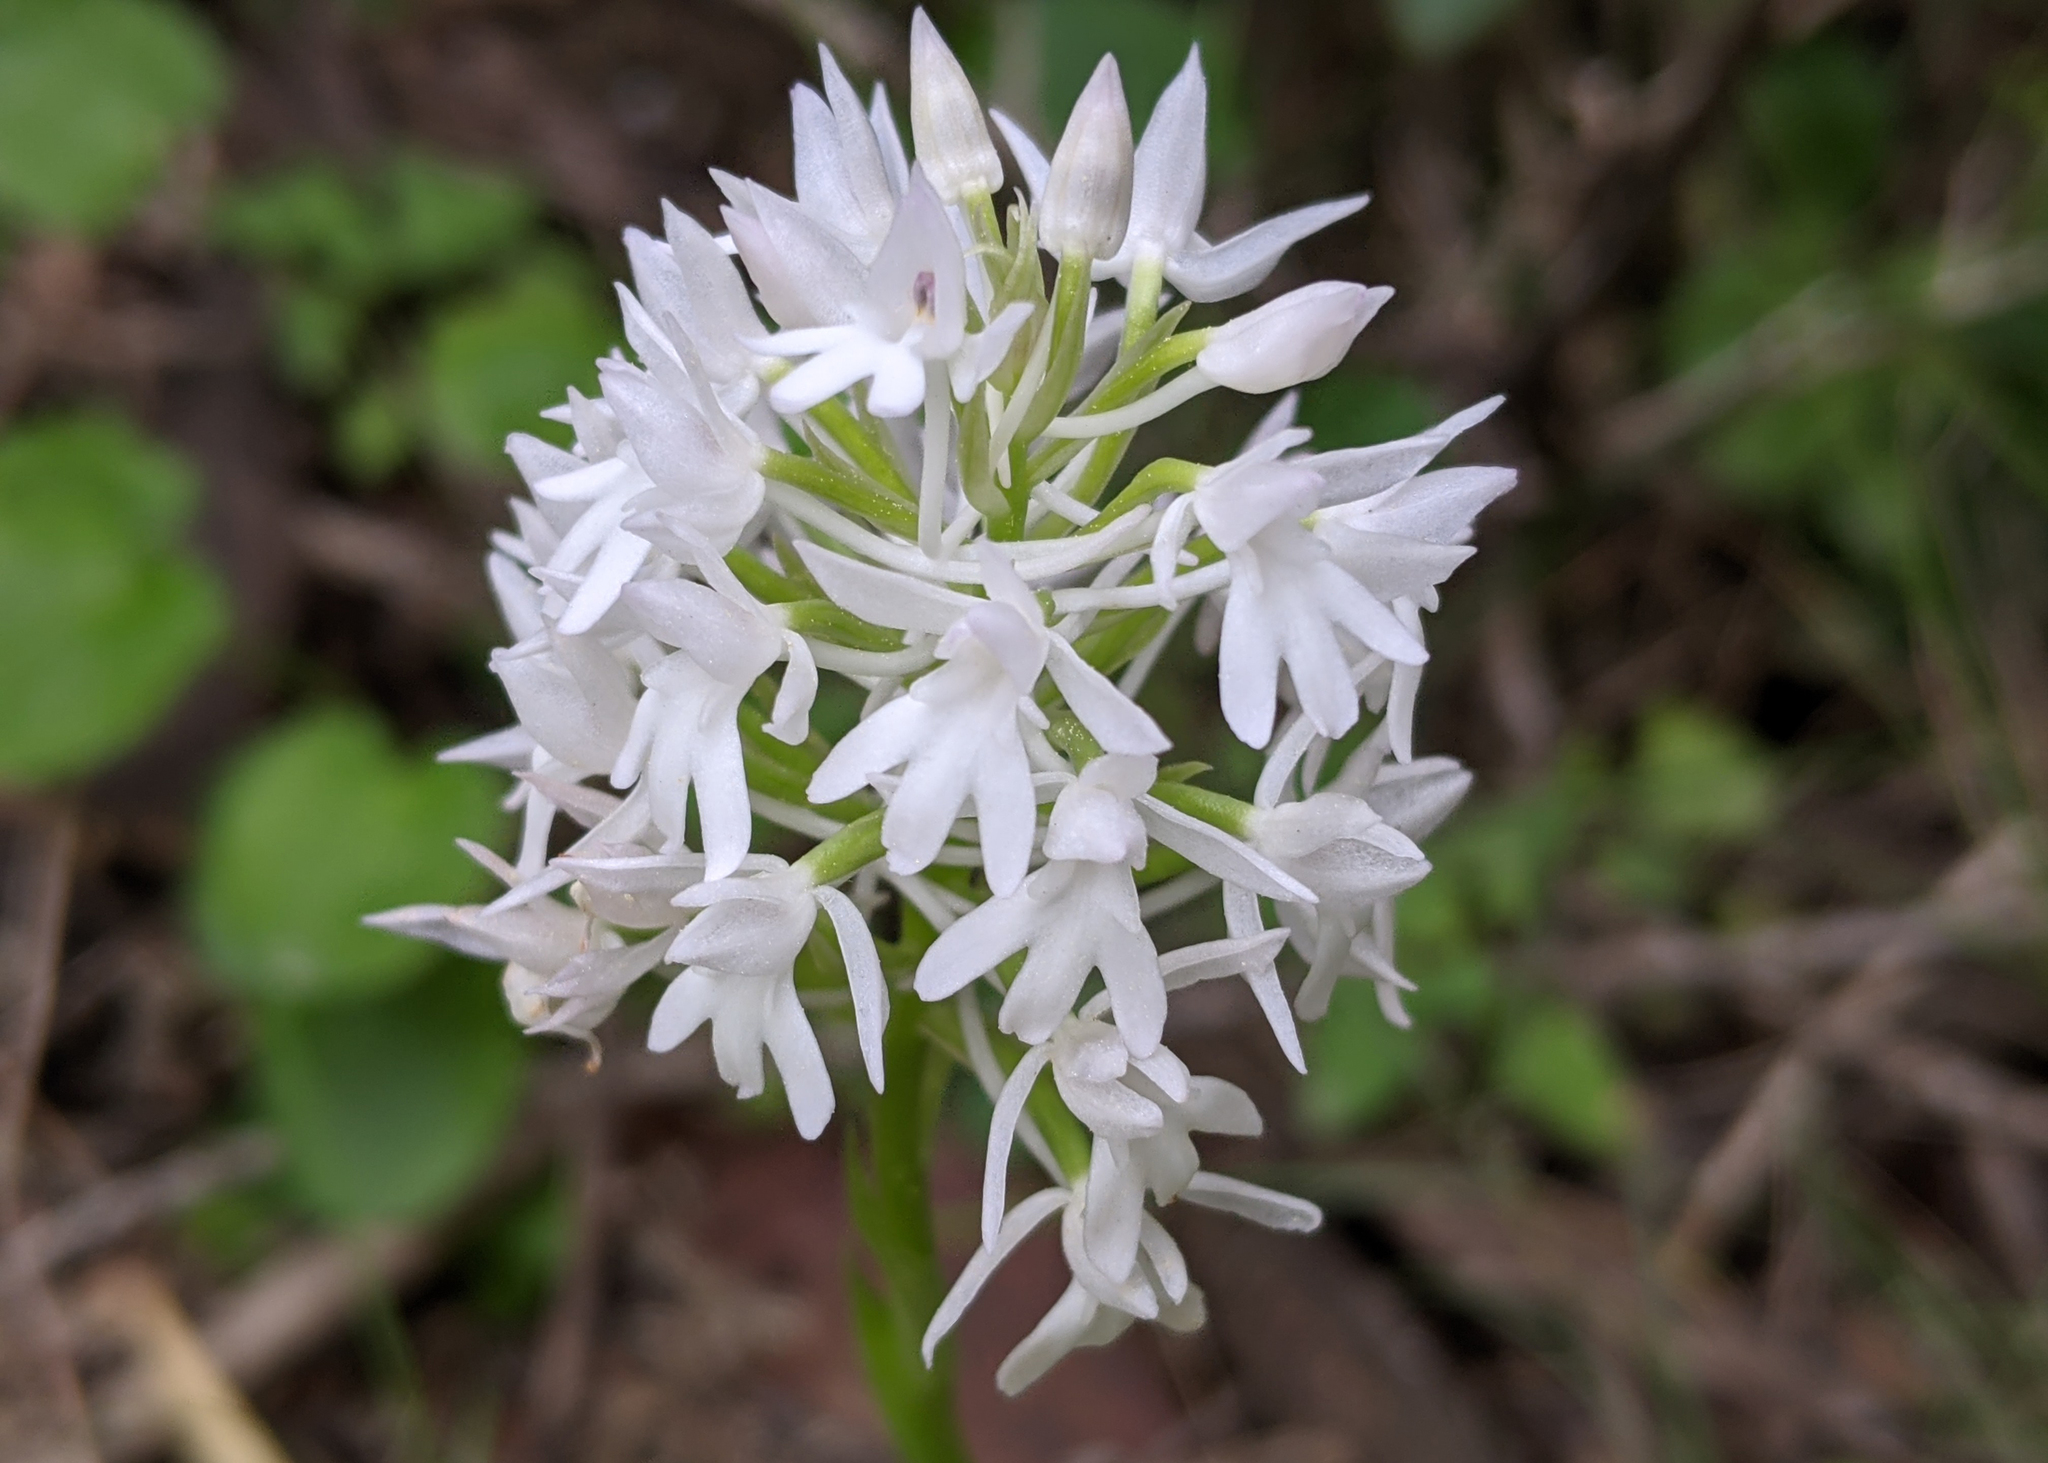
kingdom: Plantae
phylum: Tracheophyta
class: Liliopsida
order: Asparagales
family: Orchidaceae
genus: Anacamptis
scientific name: Anacamptis pyramidalis
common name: Pyramidal orchid
